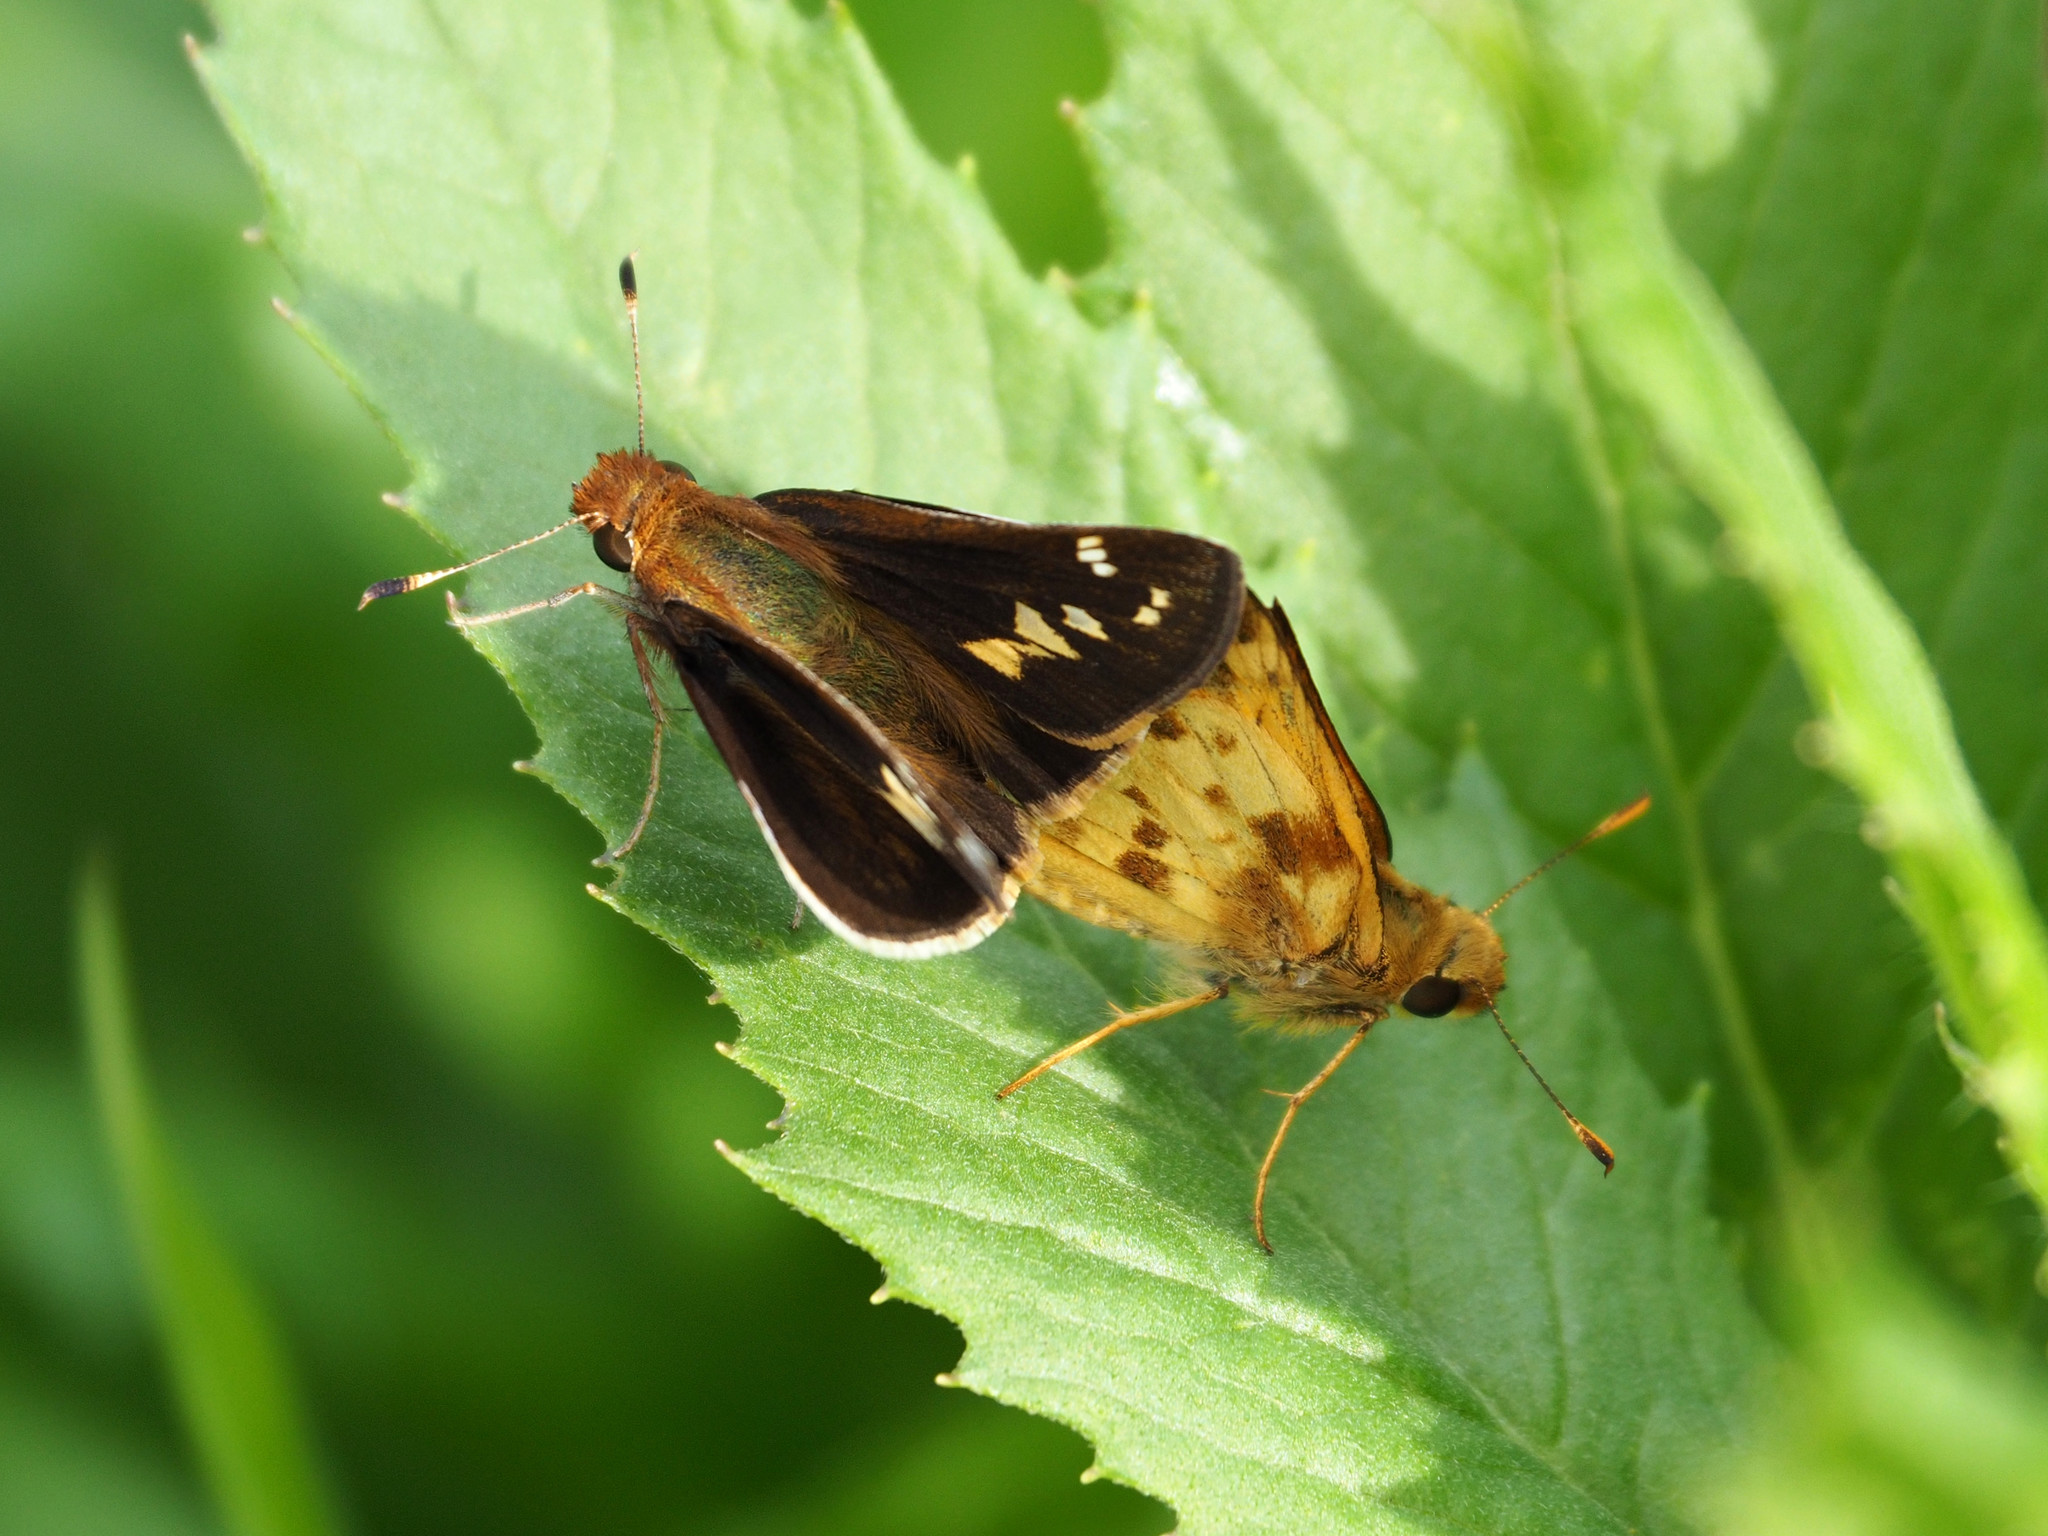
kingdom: Animalia
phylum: Arthropoda
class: Insecta
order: Lepidoptera
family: Hesperiidae
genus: Lon
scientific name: Lon zabulon
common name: Zabulon skipper
